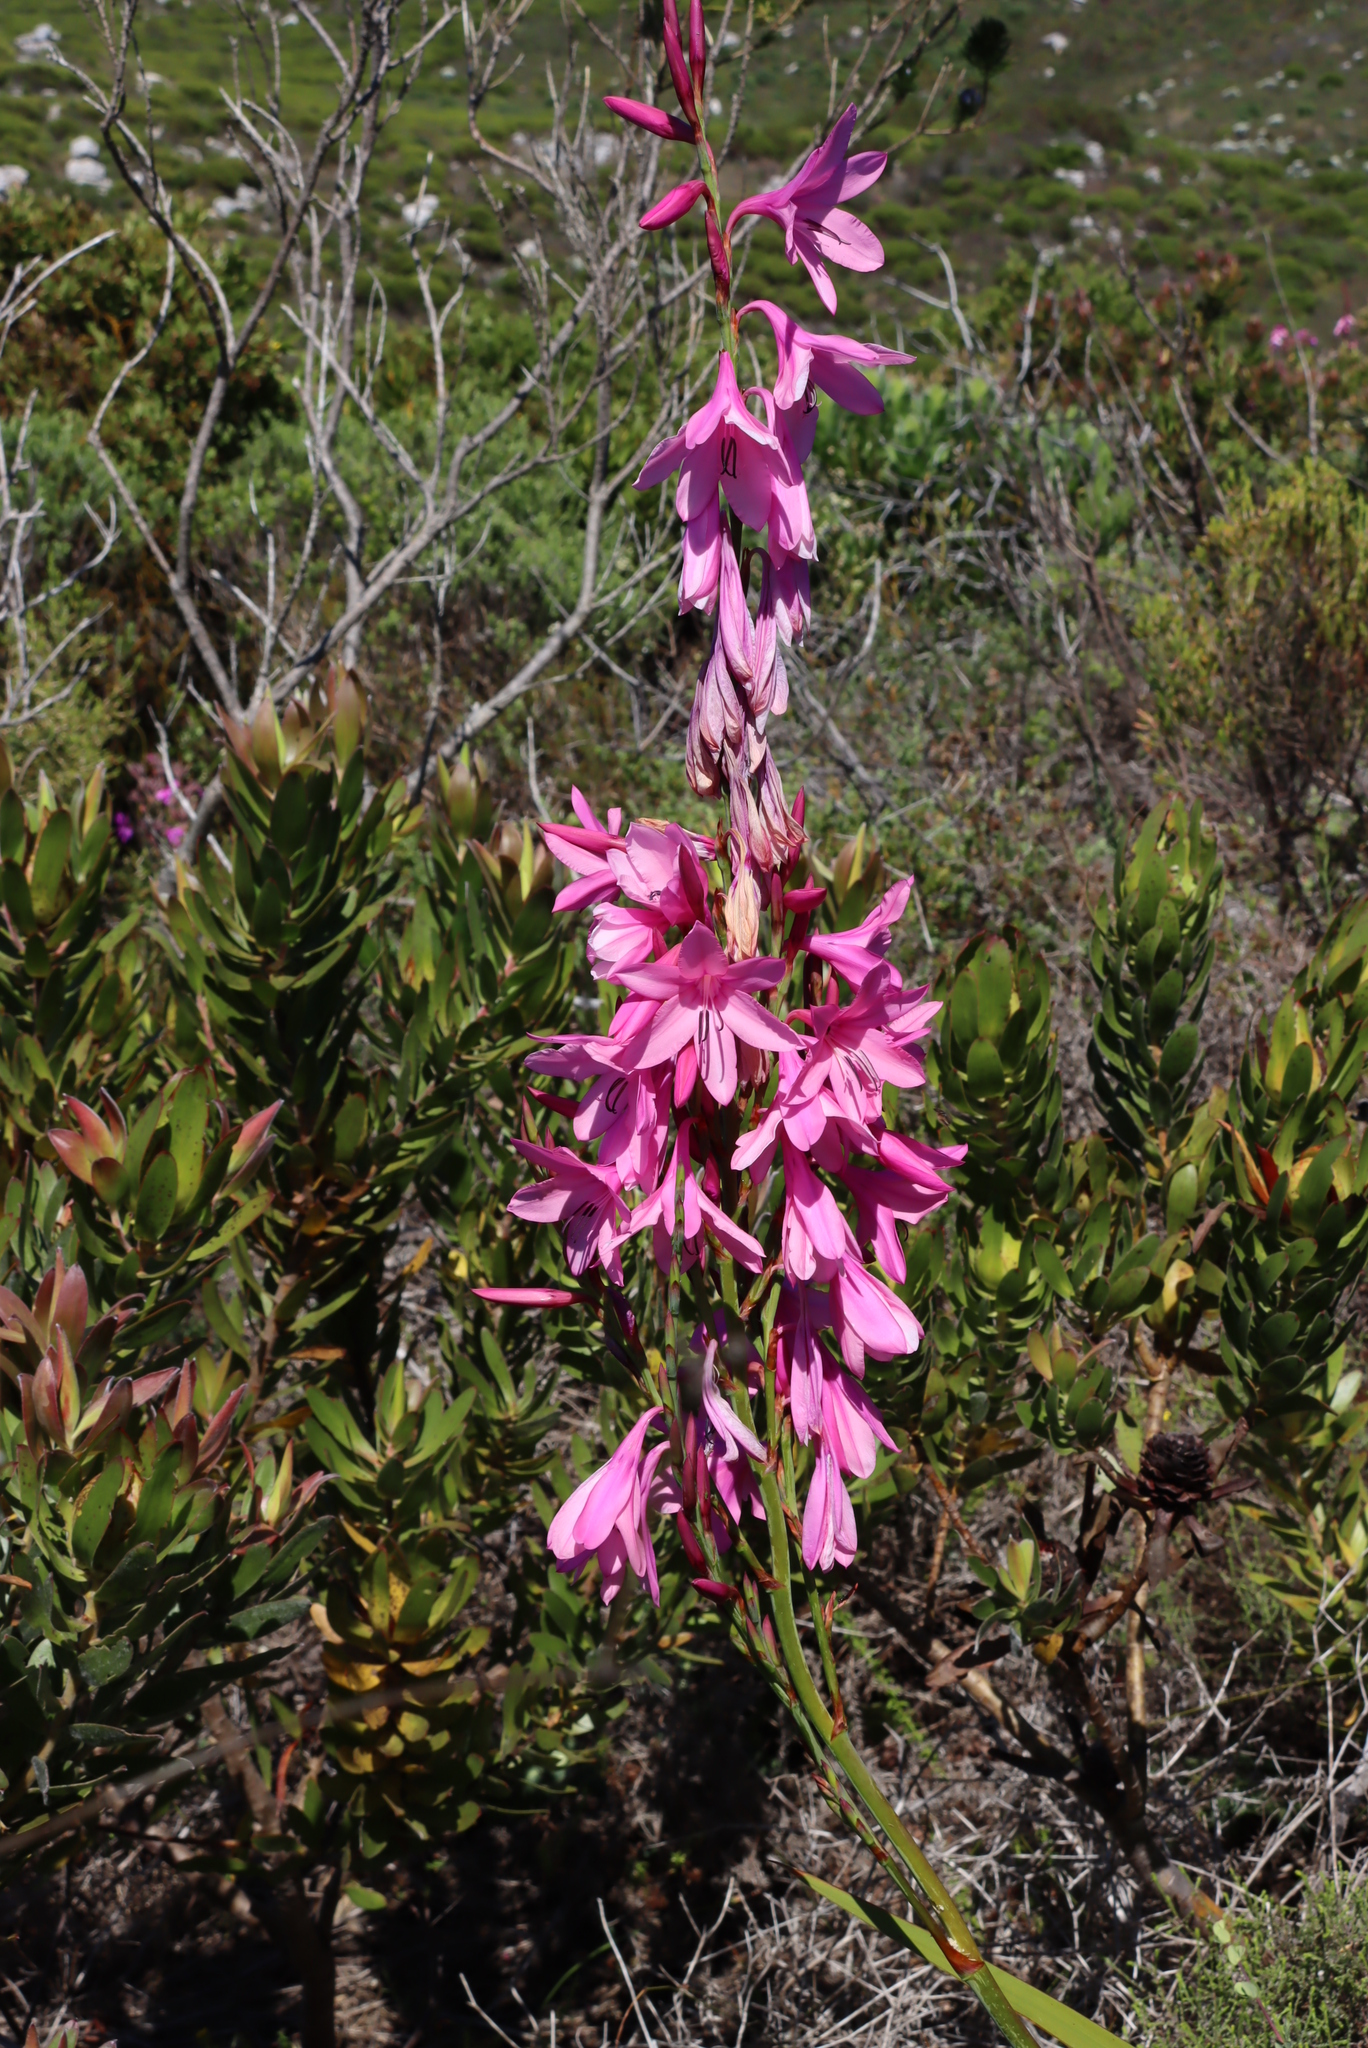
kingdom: Plantae
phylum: Tracheophyta
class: Liliopsida
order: Asparagales
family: Iridaceae
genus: Watsonia
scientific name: Watsonia borbonica
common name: Bugle-lily
